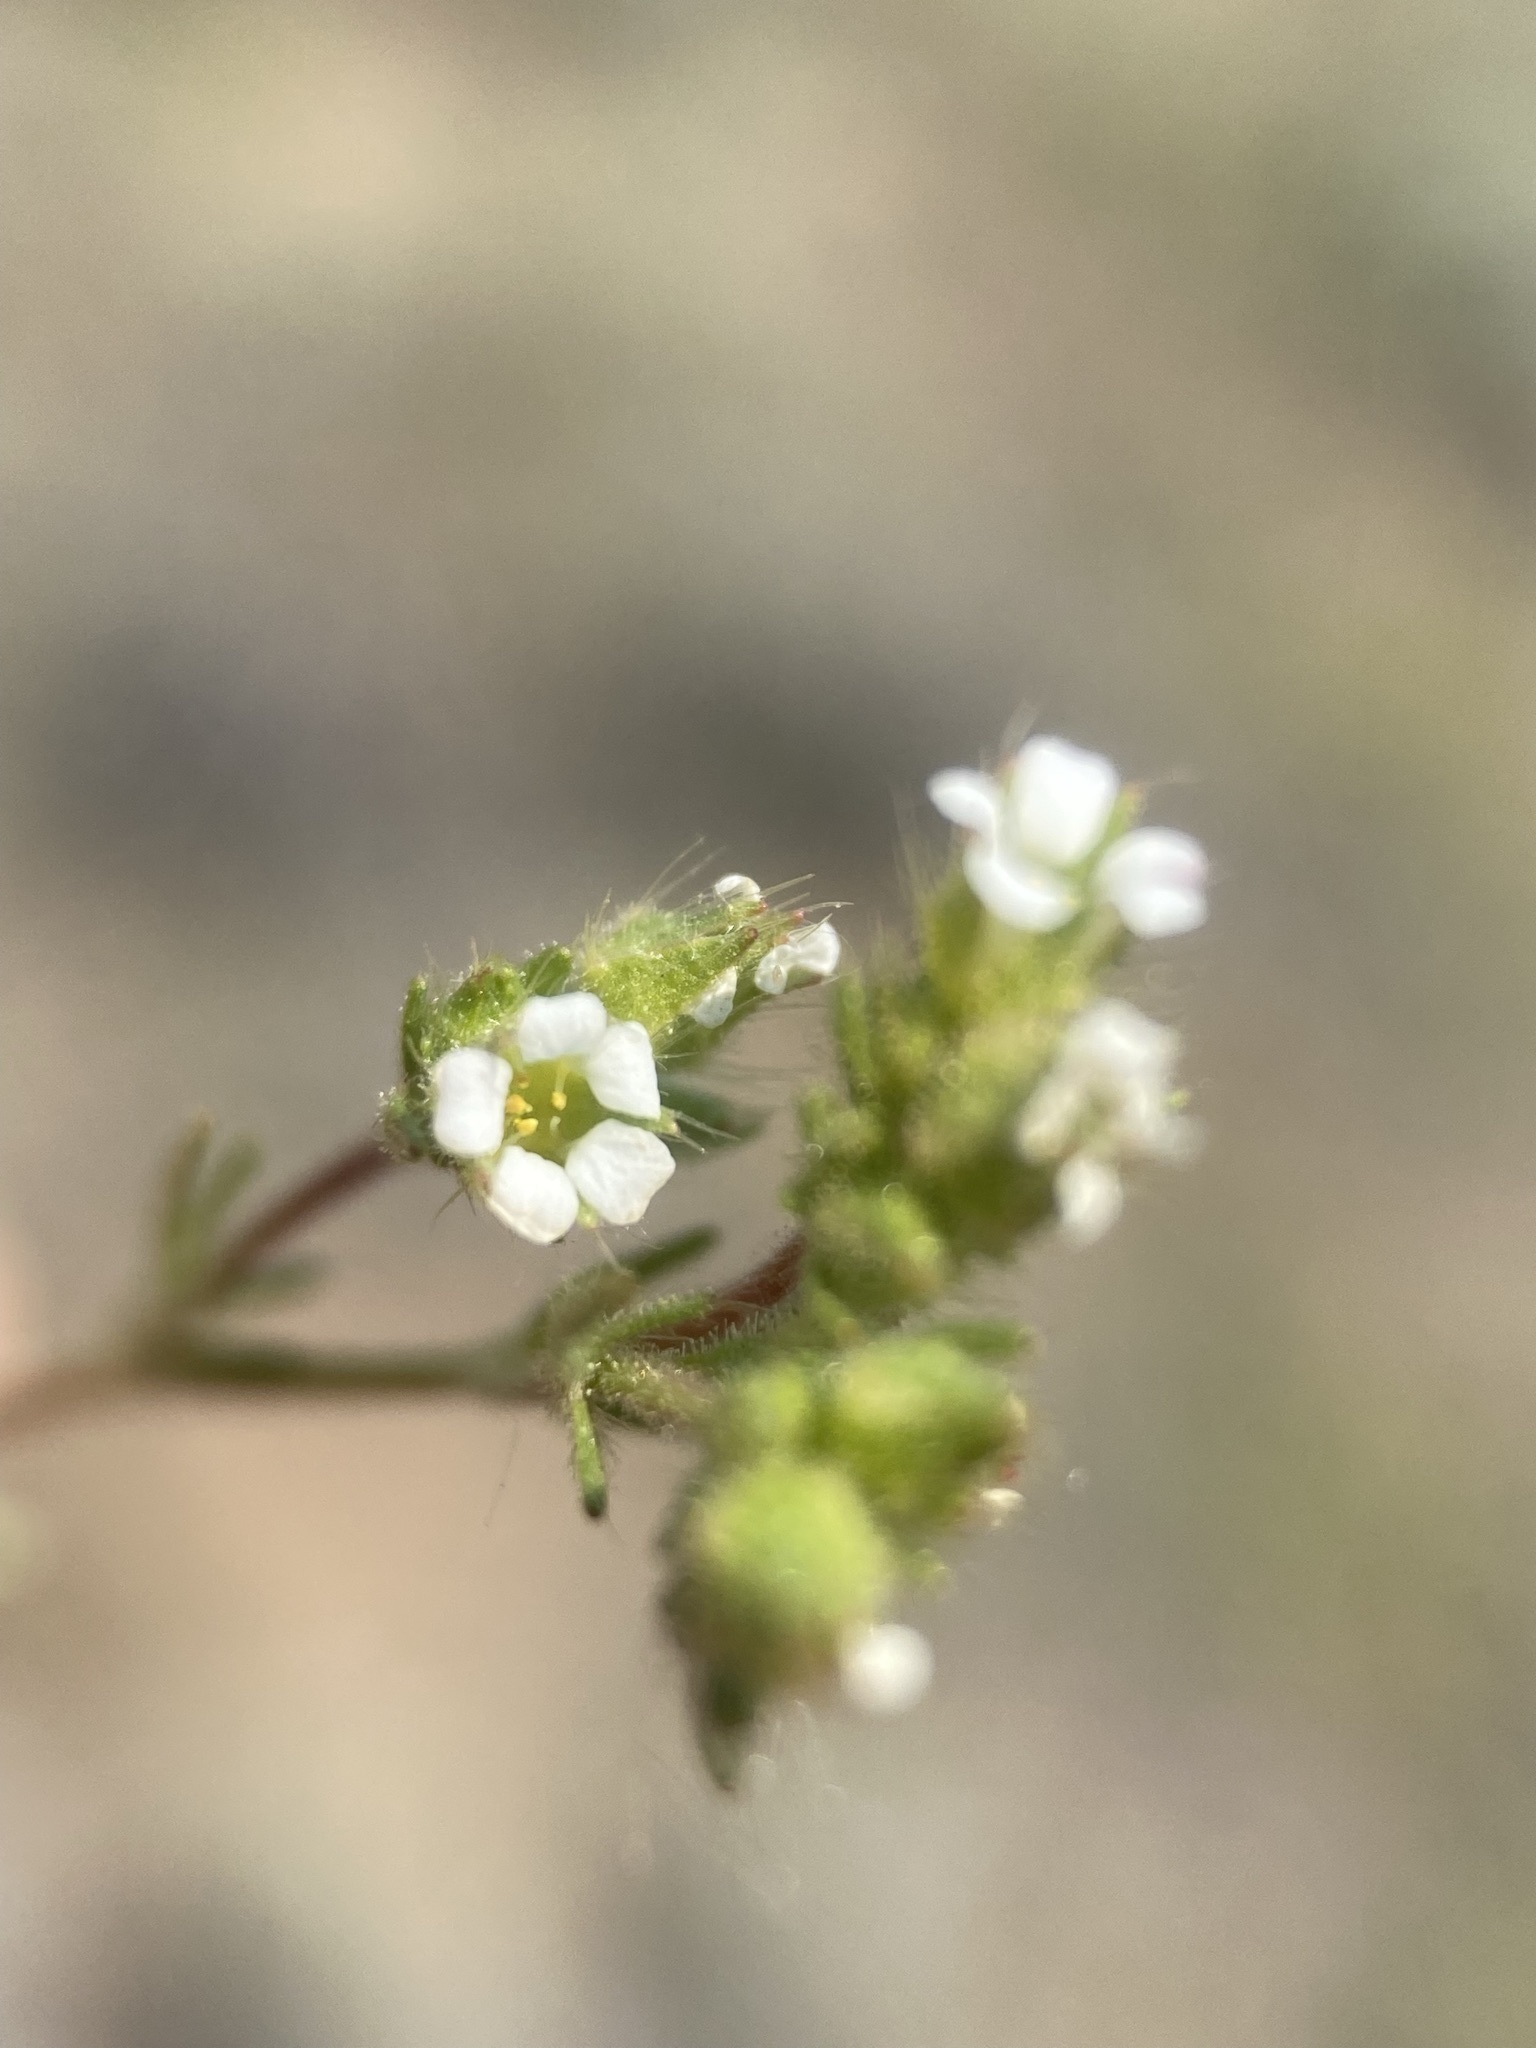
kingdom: Plantae
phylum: Tracheophyta
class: Magnoliopsida
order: Rosales
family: Rosaceae
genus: Chamaerhodos
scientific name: Chamaerhodos erecta
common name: American chamaerhodos
